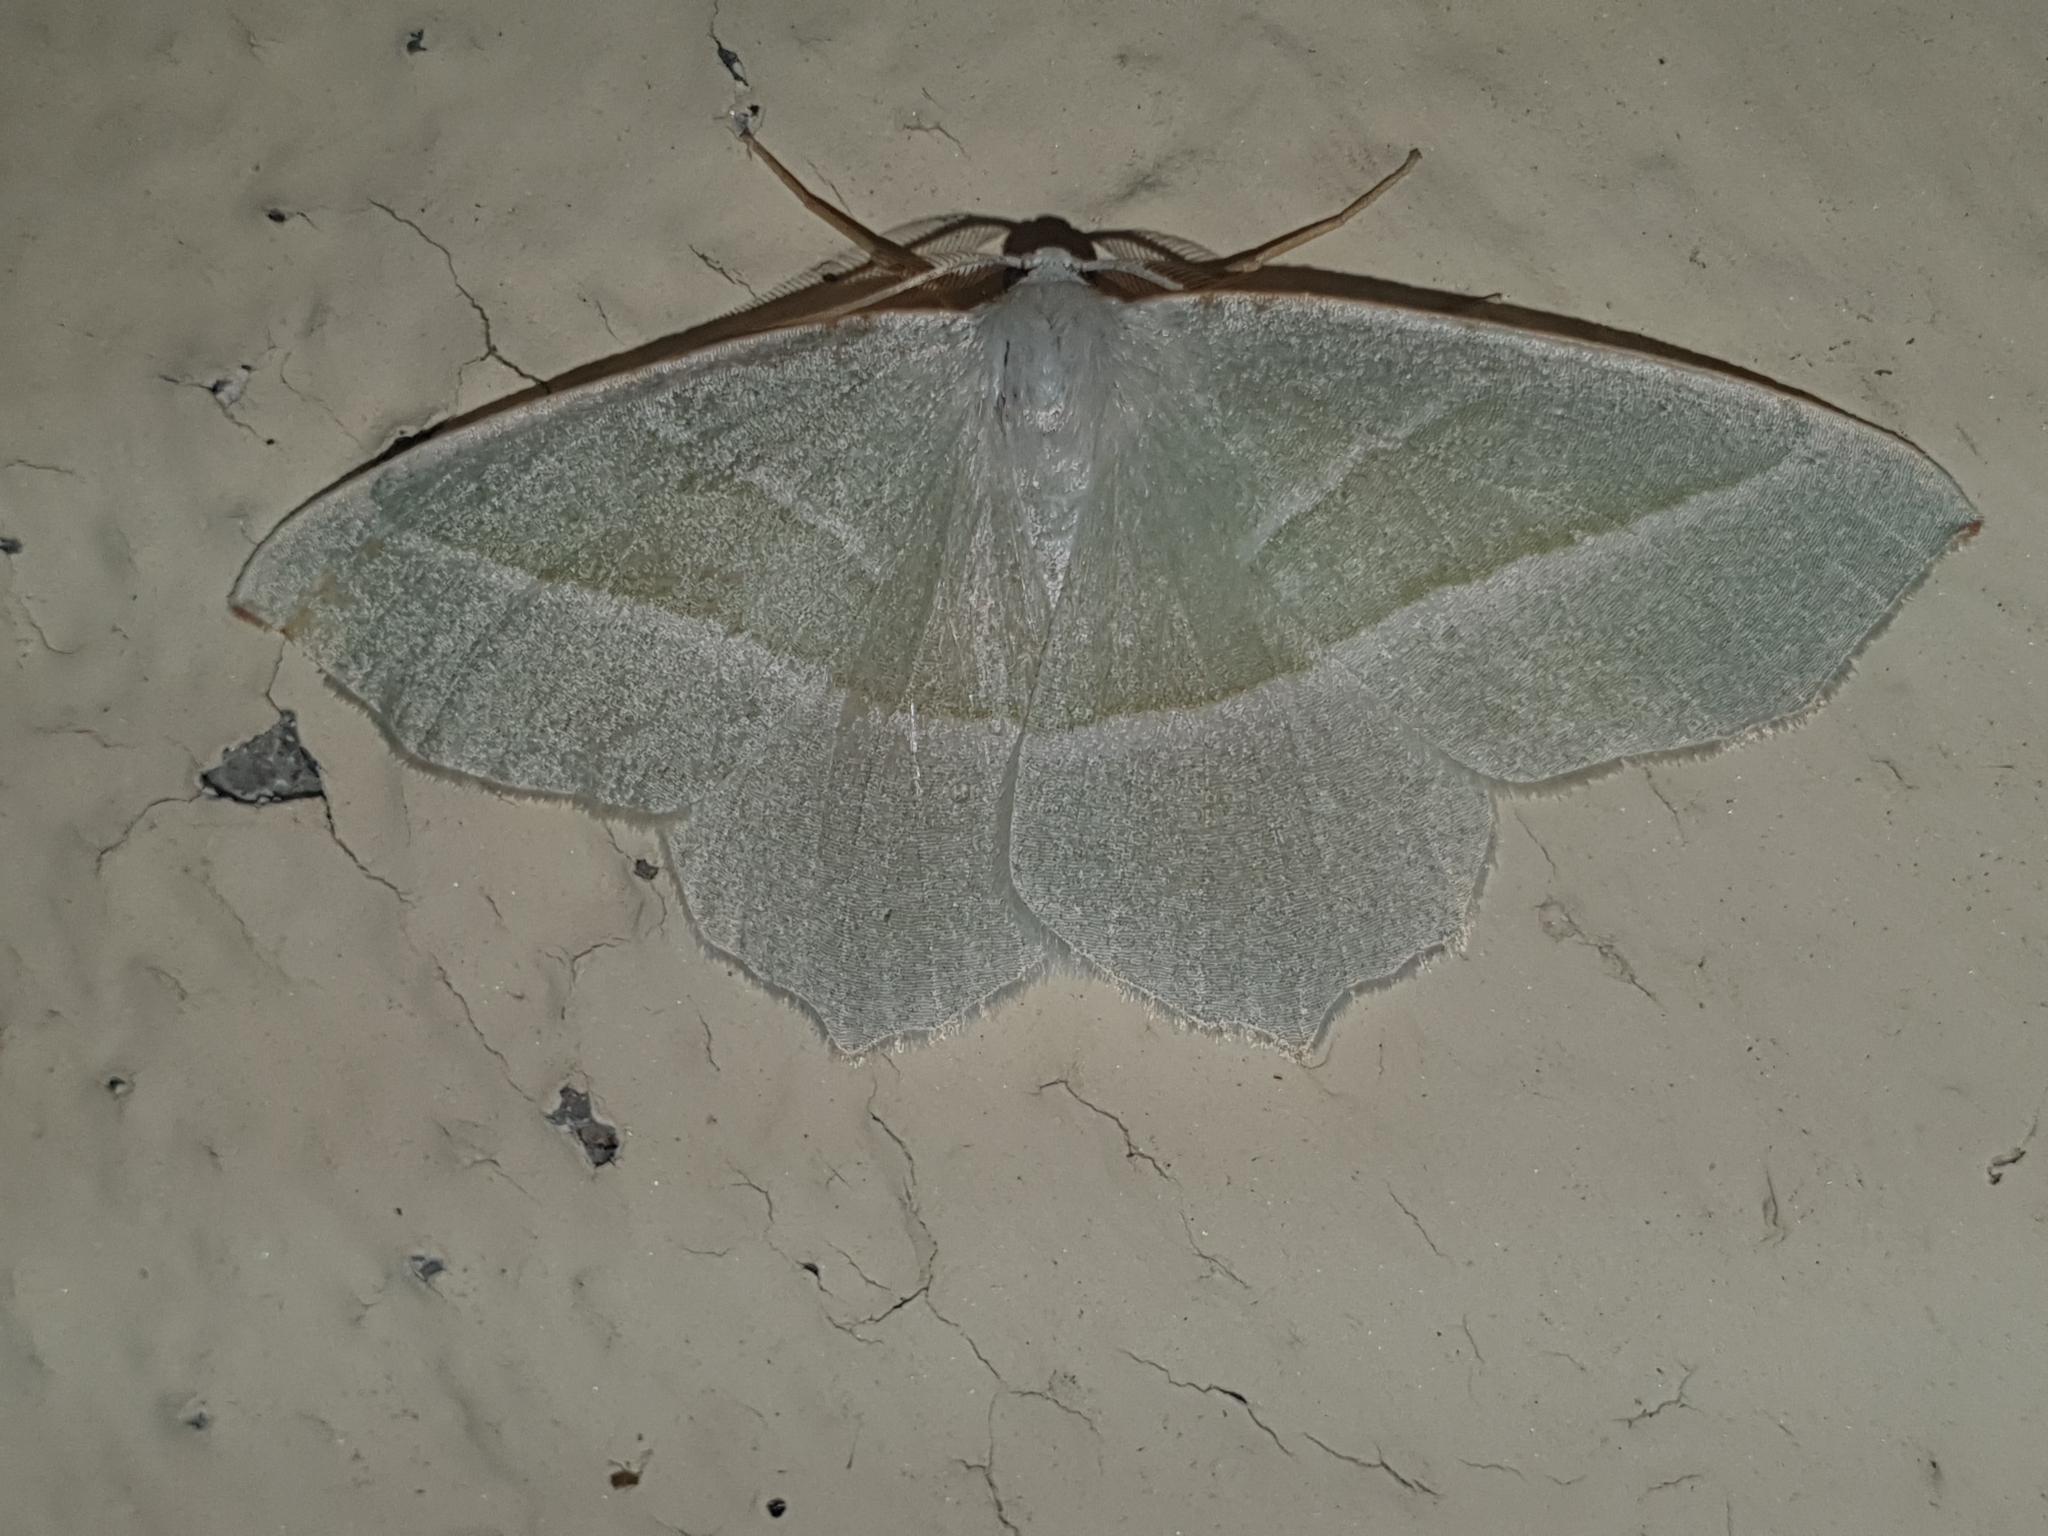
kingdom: Animalia
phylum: Arthropoda
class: Insecta
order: Lepidoptera
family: Geometridae
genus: Campaea
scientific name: Campaea margaritaria
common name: Light emerald
